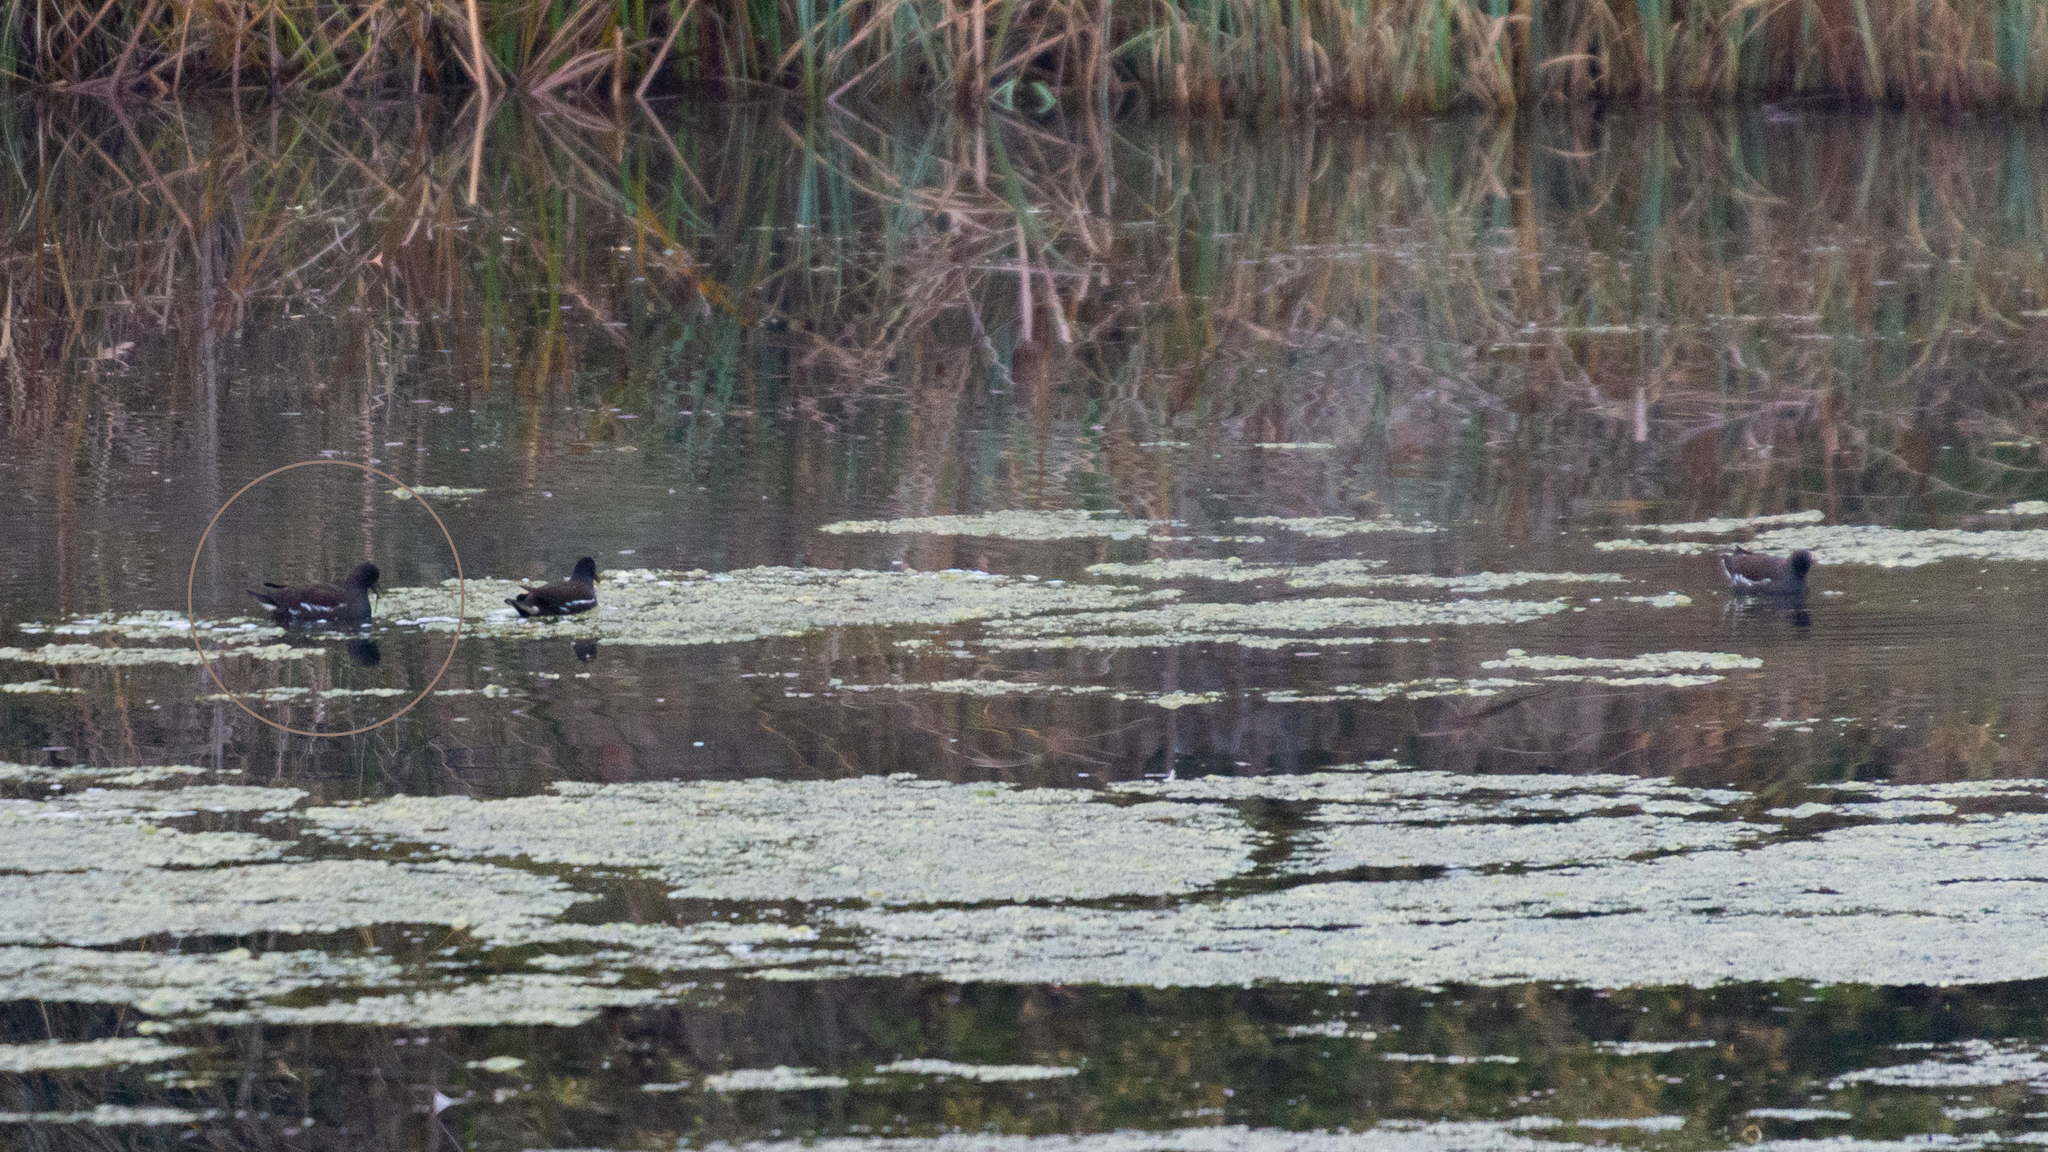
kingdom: Animalia
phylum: Chordata
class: Aves
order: Gruiformes
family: Rallidae
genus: Gallinula
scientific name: Gallinula chloropus
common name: Common moorhen
